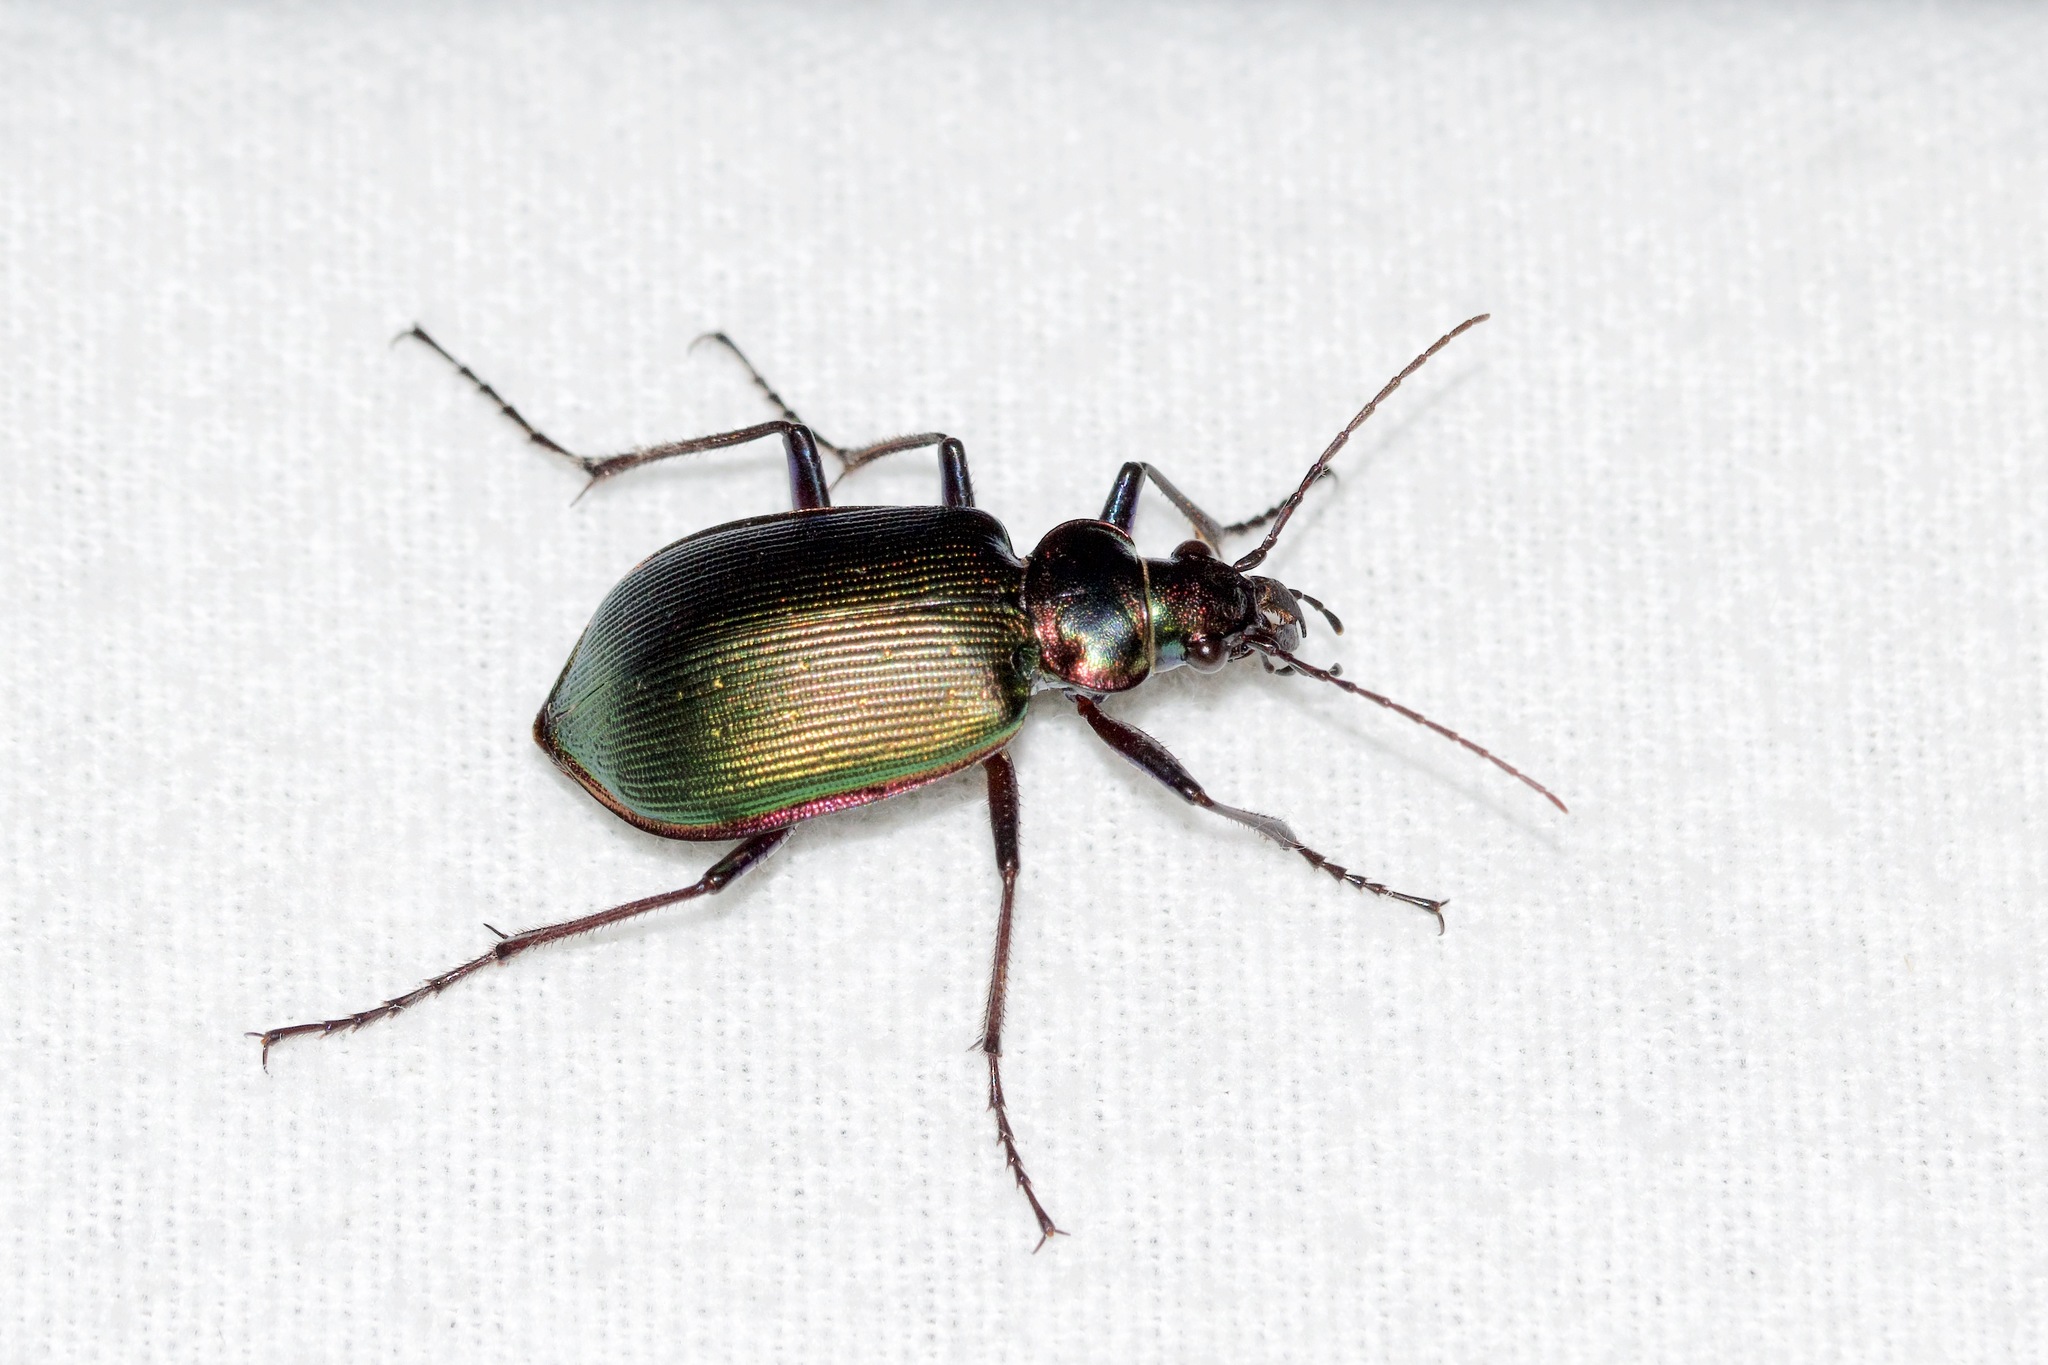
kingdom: Animalia
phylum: Arthropoda
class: Insecta
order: Coleoptera
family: Carabidae
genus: Calosoma
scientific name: Calosoma scrutator
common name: Fiery searcher beetle
